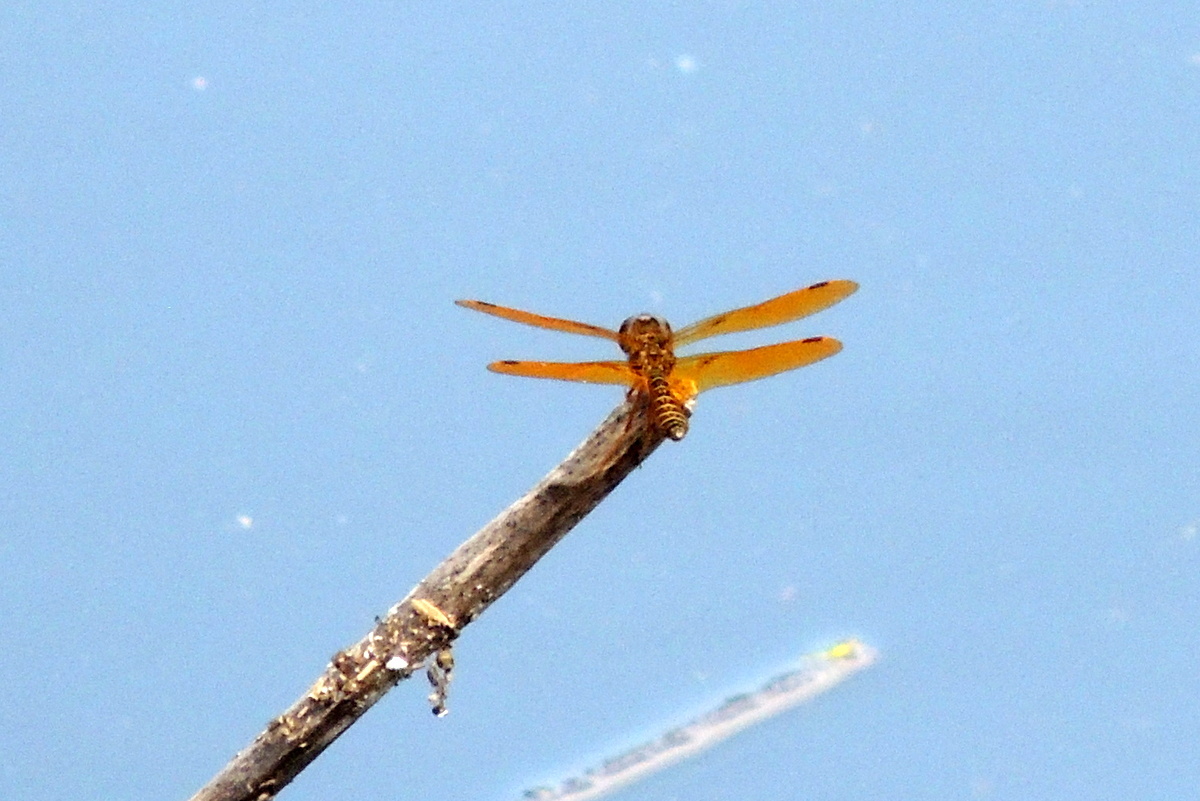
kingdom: Animalia
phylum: Arthropoda
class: Insecta
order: Odonata
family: Libellulidae
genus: Perithemis
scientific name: Perithemis tenera
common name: Eastern amberwing
